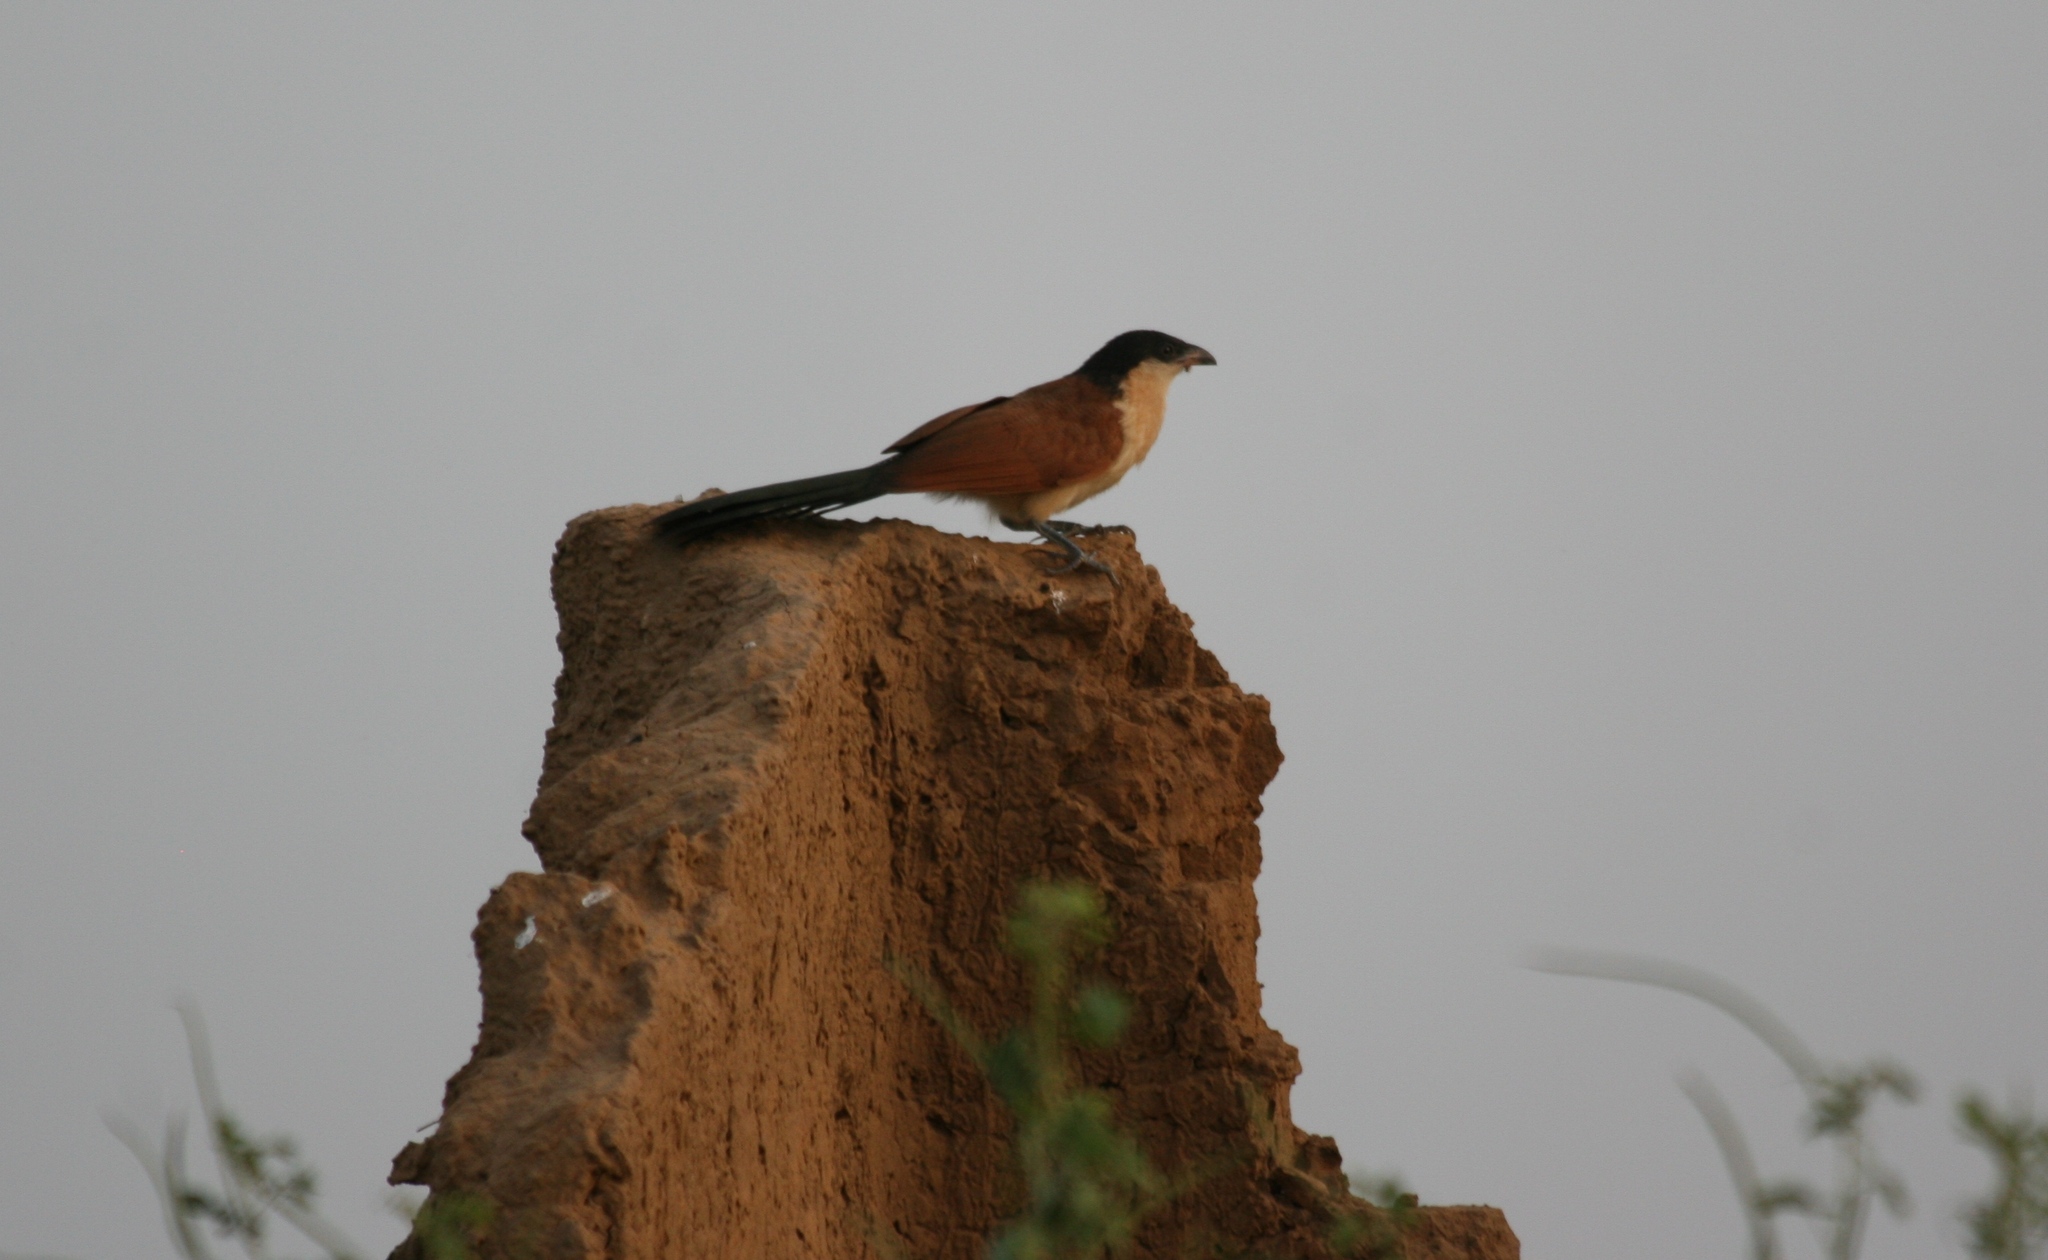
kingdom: Animalia
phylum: Chordata
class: Aves
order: Cuculiformes
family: Cuculidae
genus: Centropus
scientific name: Centropus senegalensis
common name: Senegal coucal
